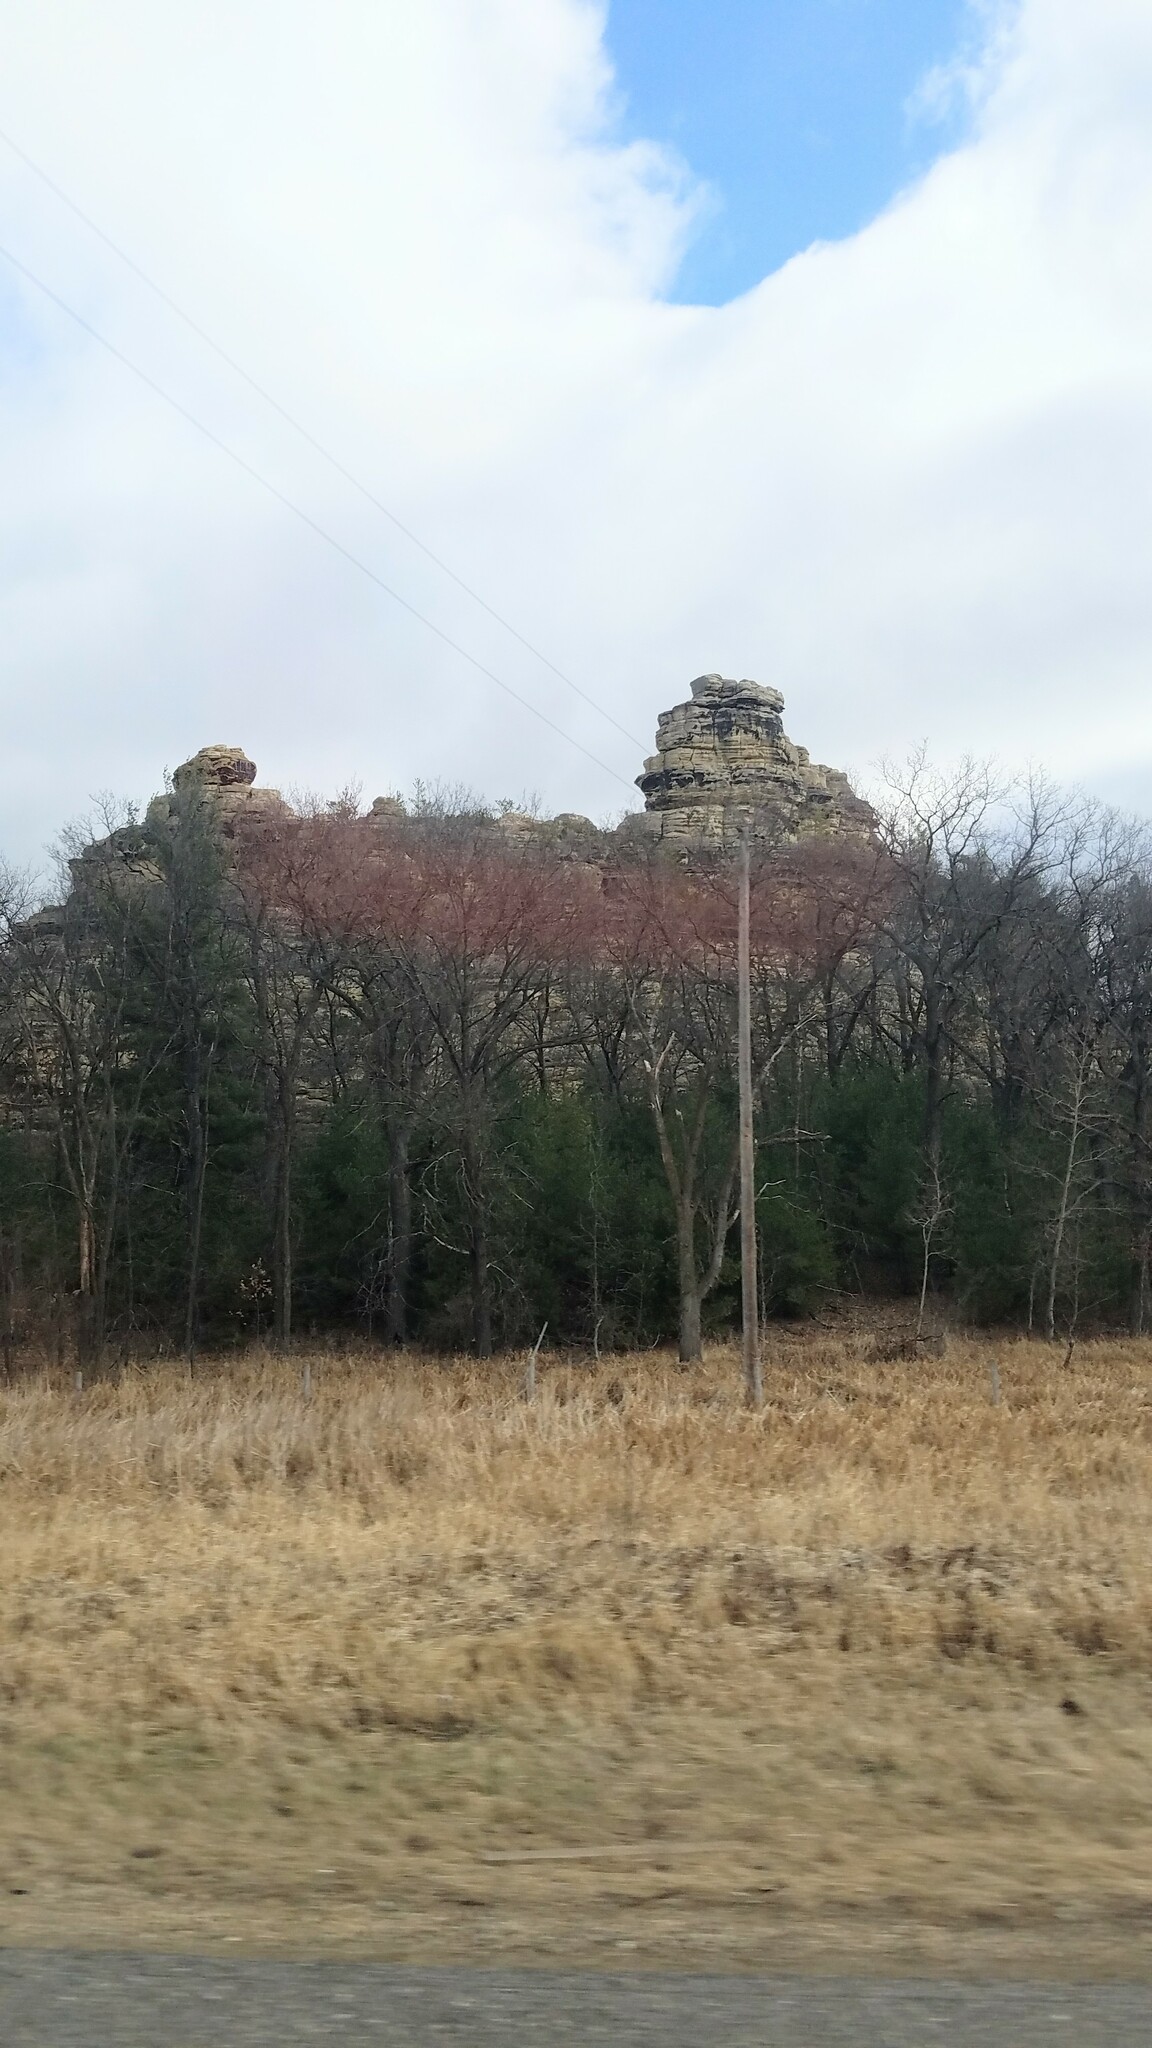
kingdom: Plantae
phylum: Tracheophyta
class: Pinopsida
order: Pinales
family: Pinaceae
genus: Pinus
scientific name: Pinus strobus
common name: Weymouth pine
